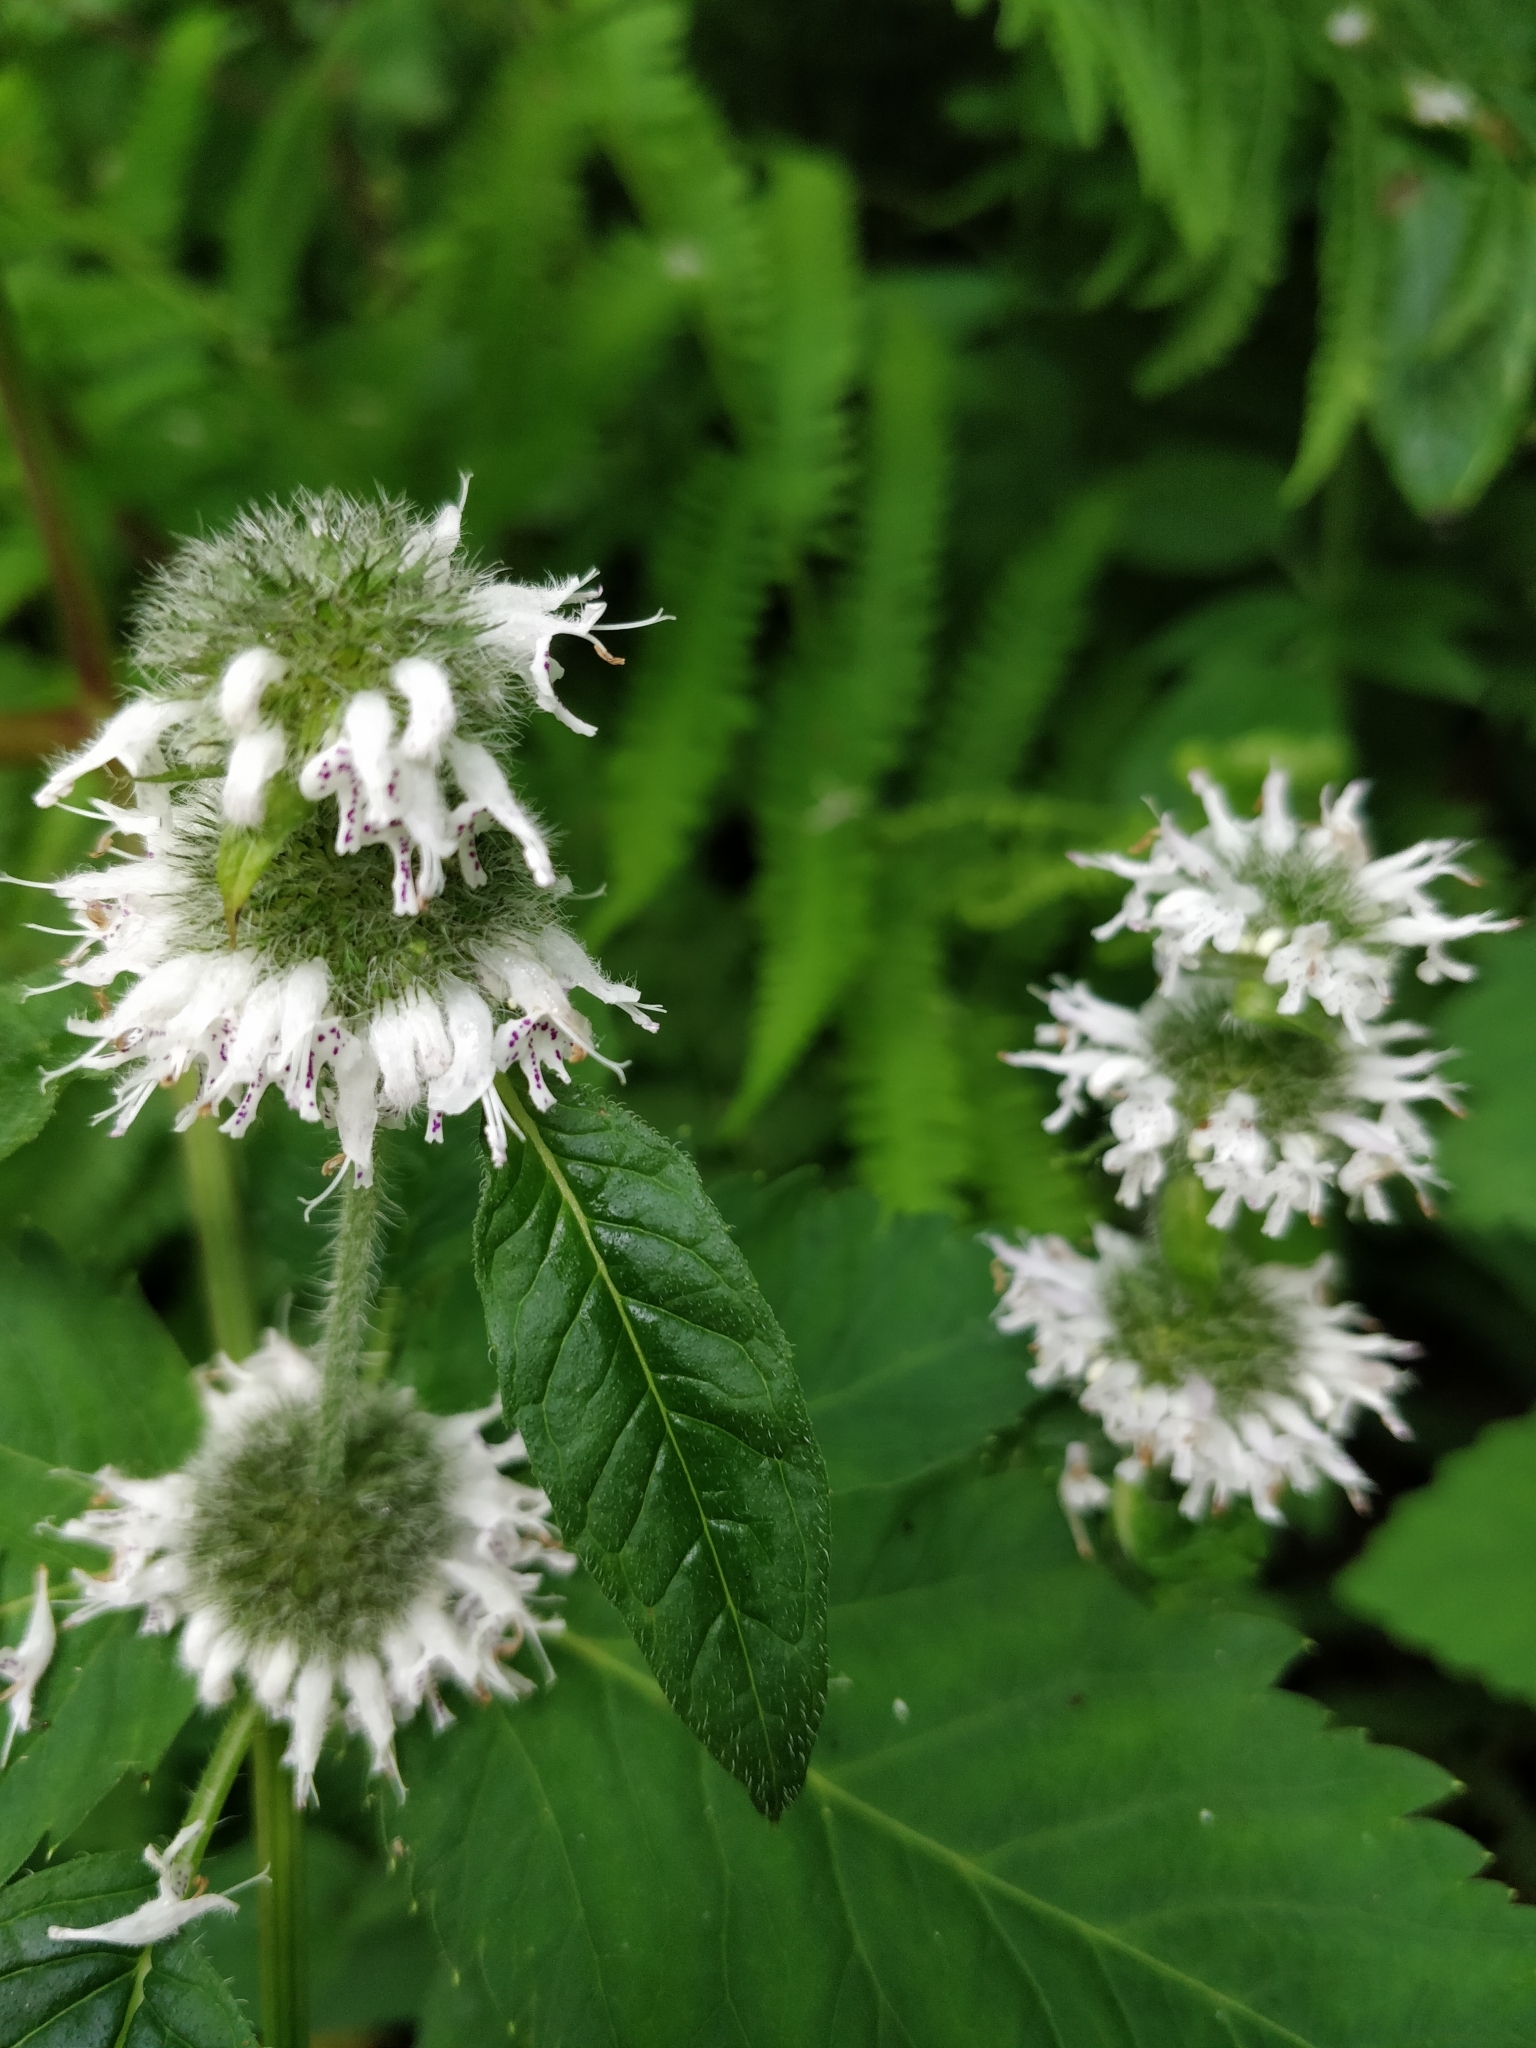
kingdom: Plantae
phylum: Tracheophyta
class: Magnoliopsida
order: Lamiales
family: Lamiaceae
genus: Blephilia
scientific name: Blephilia hirsuta
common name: Hairy blephilia
